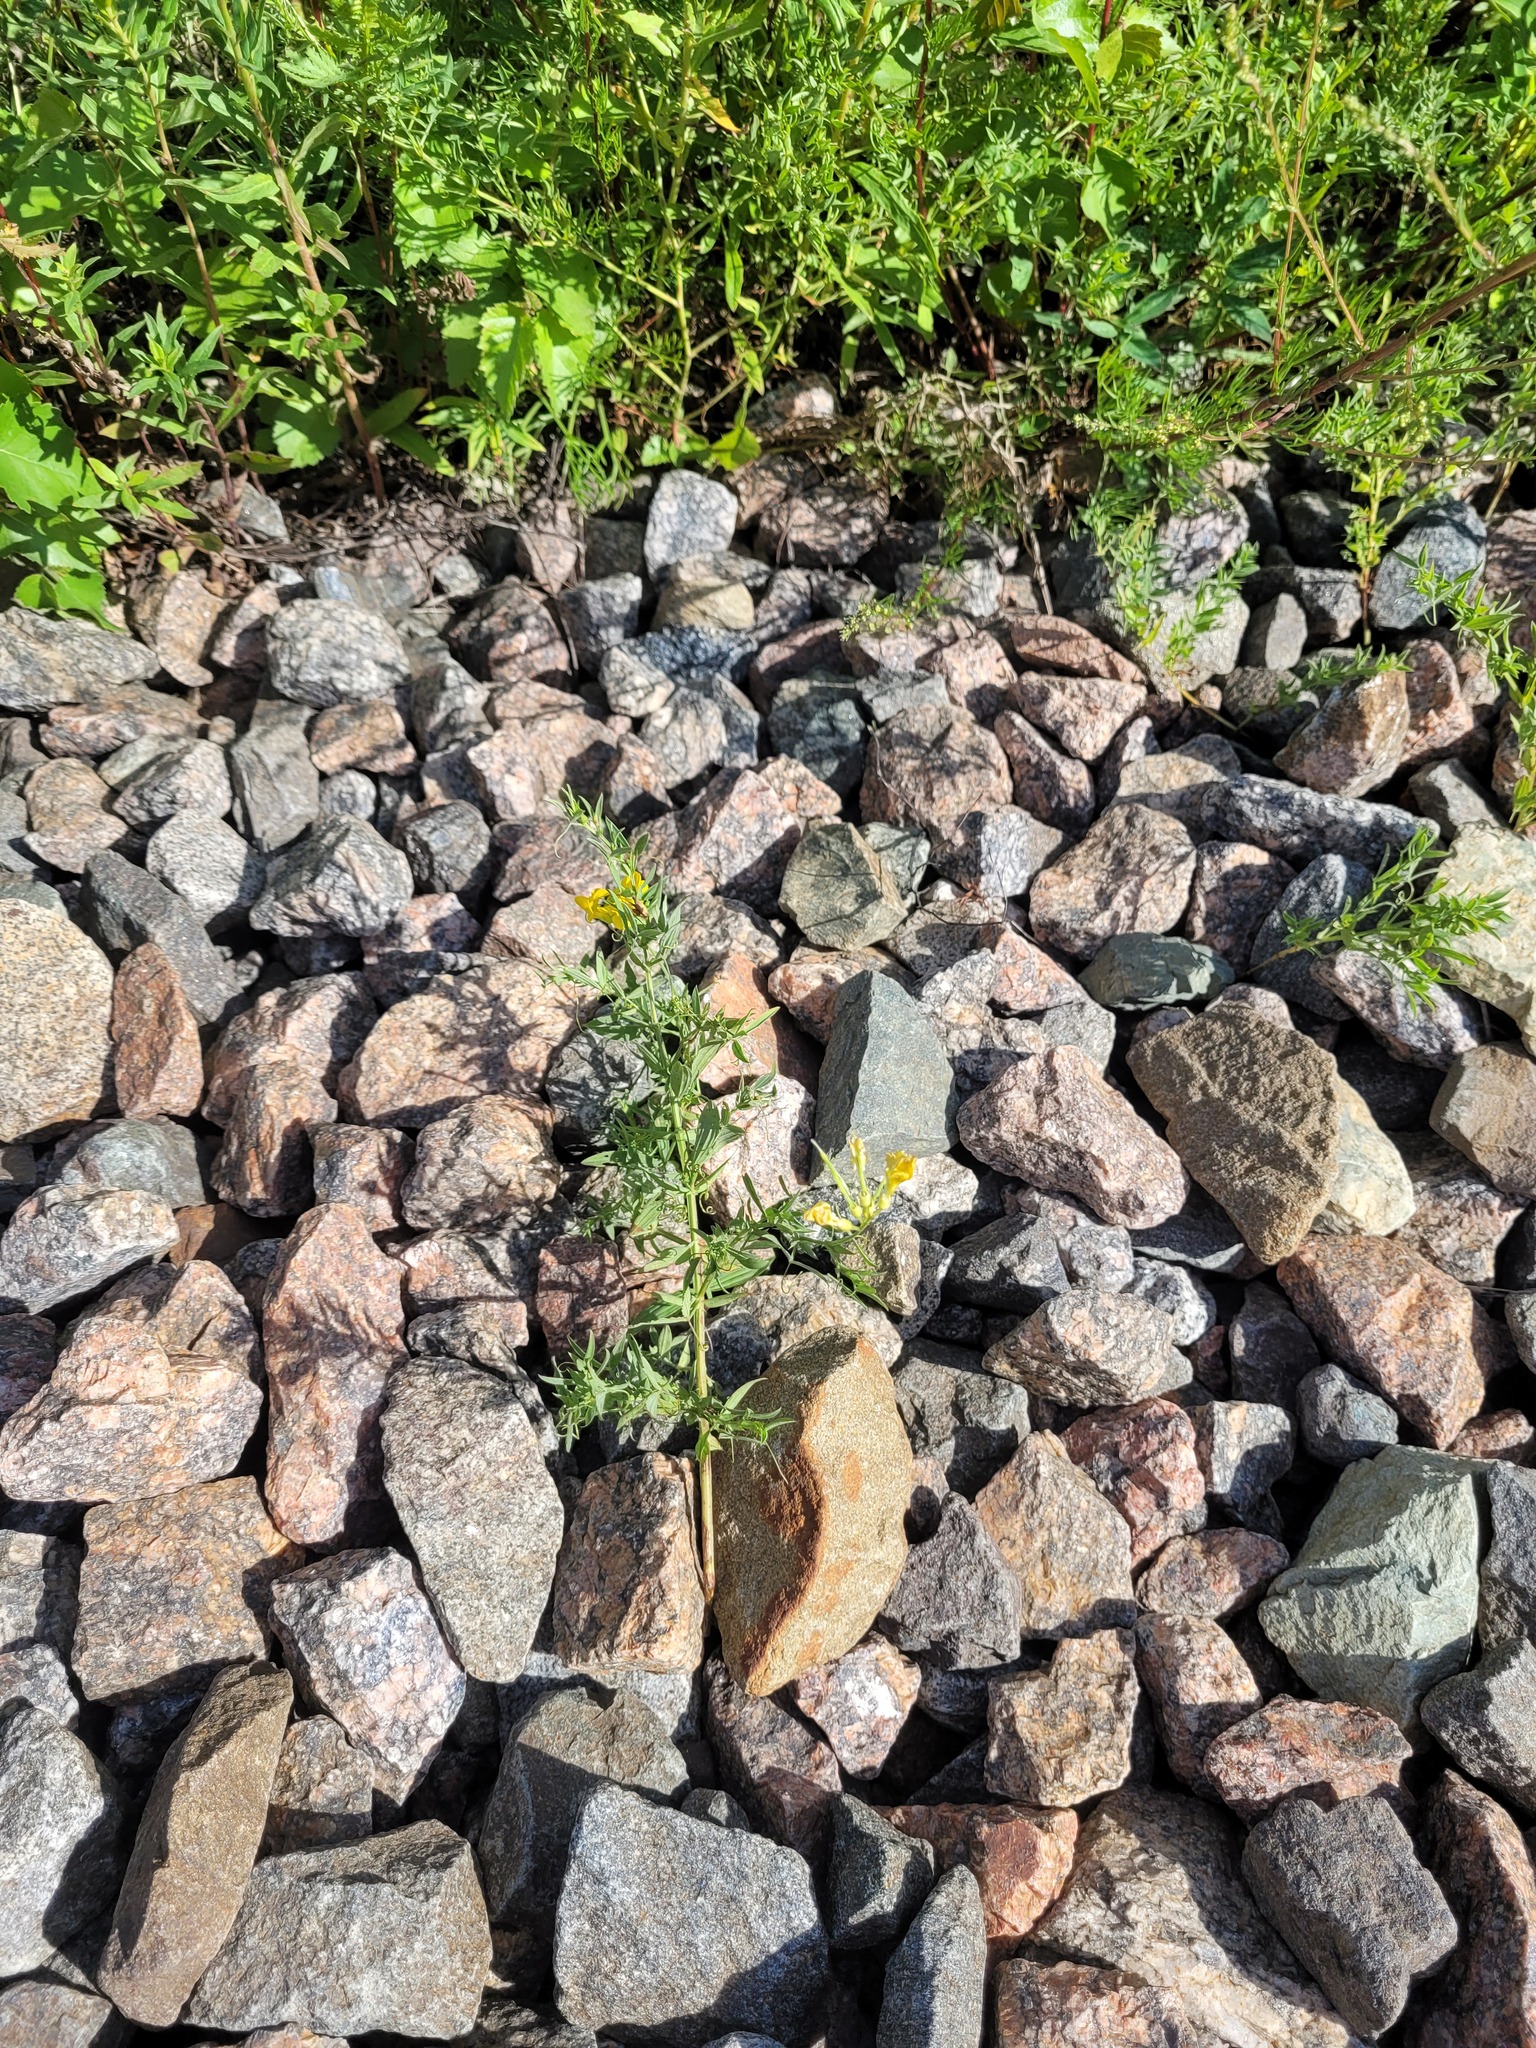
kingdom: Plantae
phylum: Tracheophyta
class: Magnoliopsida
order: Fabales
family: Fabaceae
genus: Lathyrus
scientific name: Lathyrus pratensis
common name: Meadow vetchling
